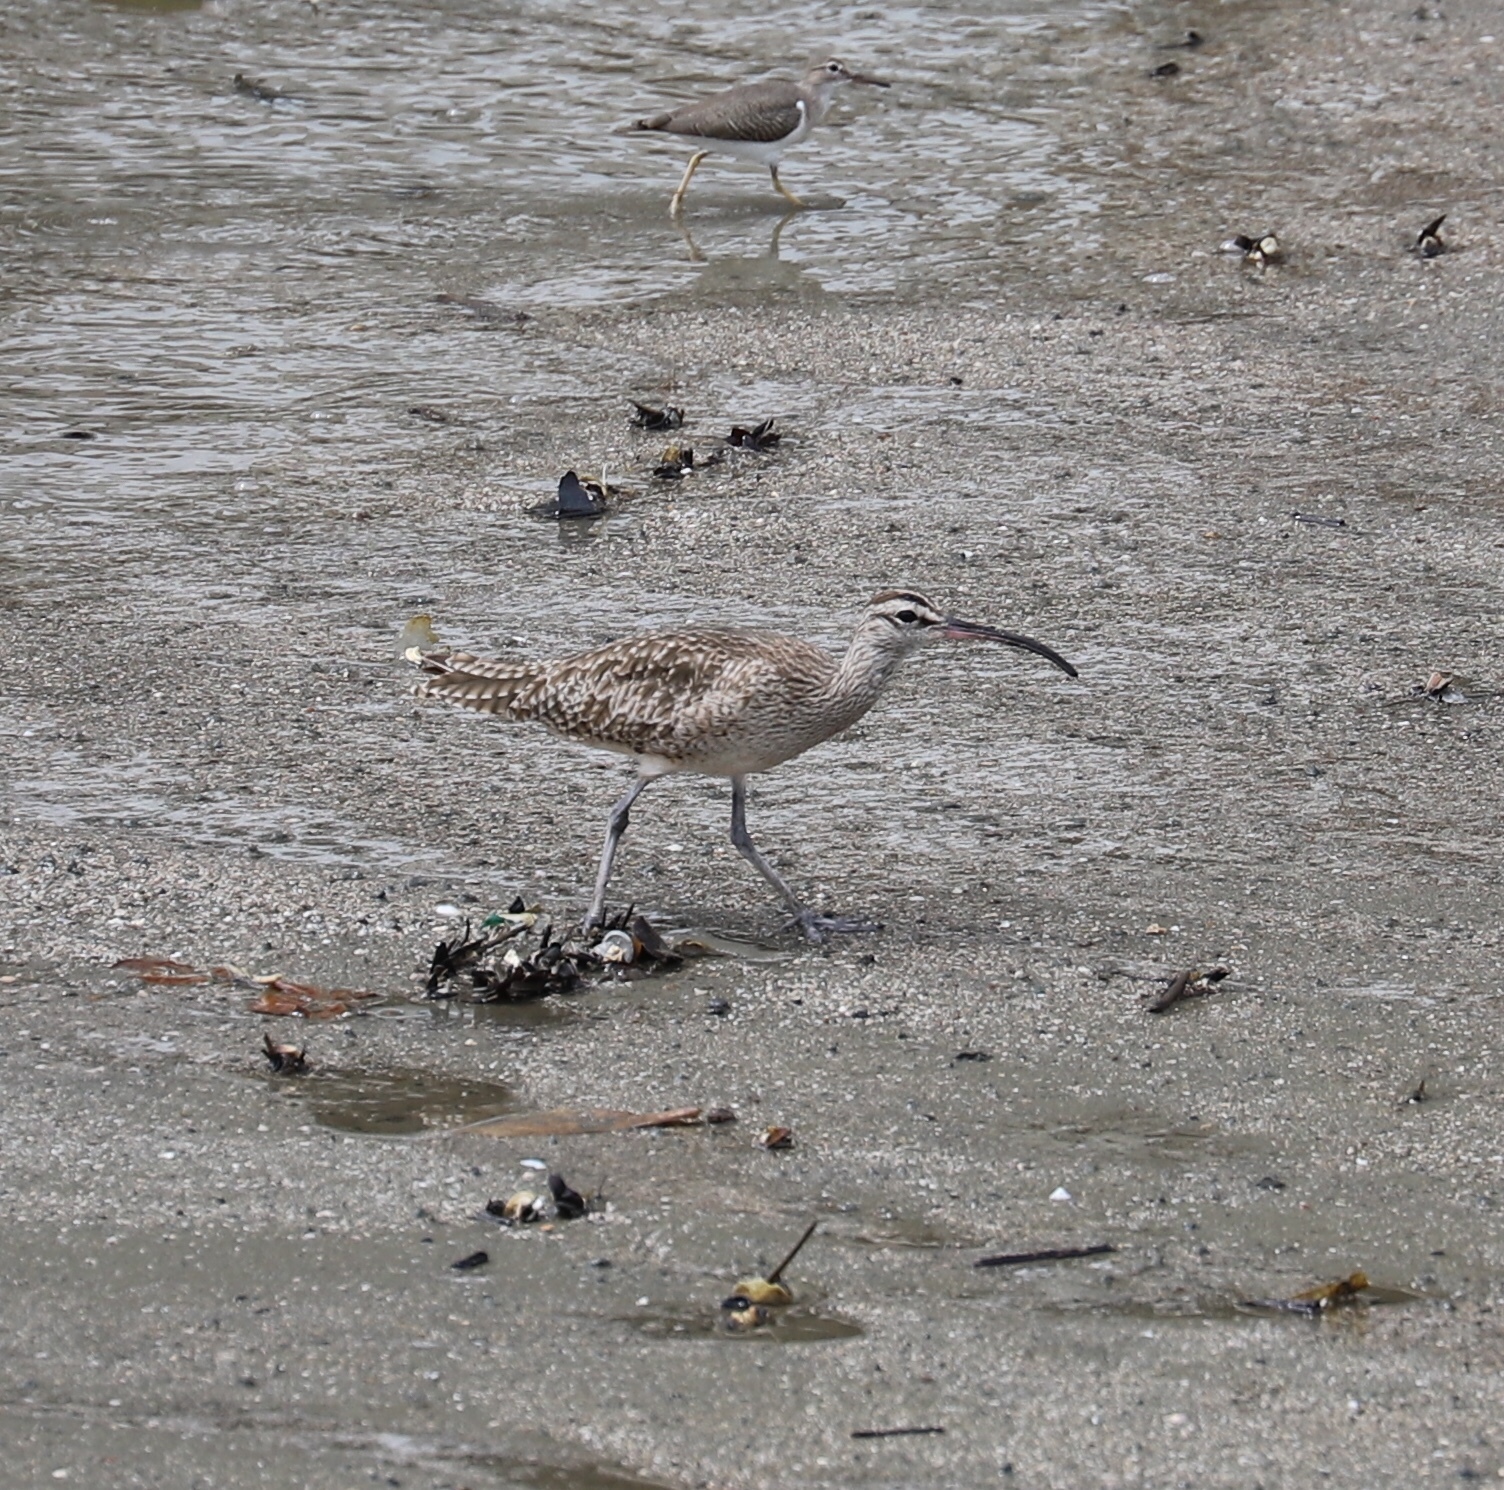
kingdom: Animalia
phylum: Chordata
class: Aves
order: Charadriiformes
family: Scolopacidae
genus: Numenius
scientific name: Numenius phaeopus
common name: Whimbrel
